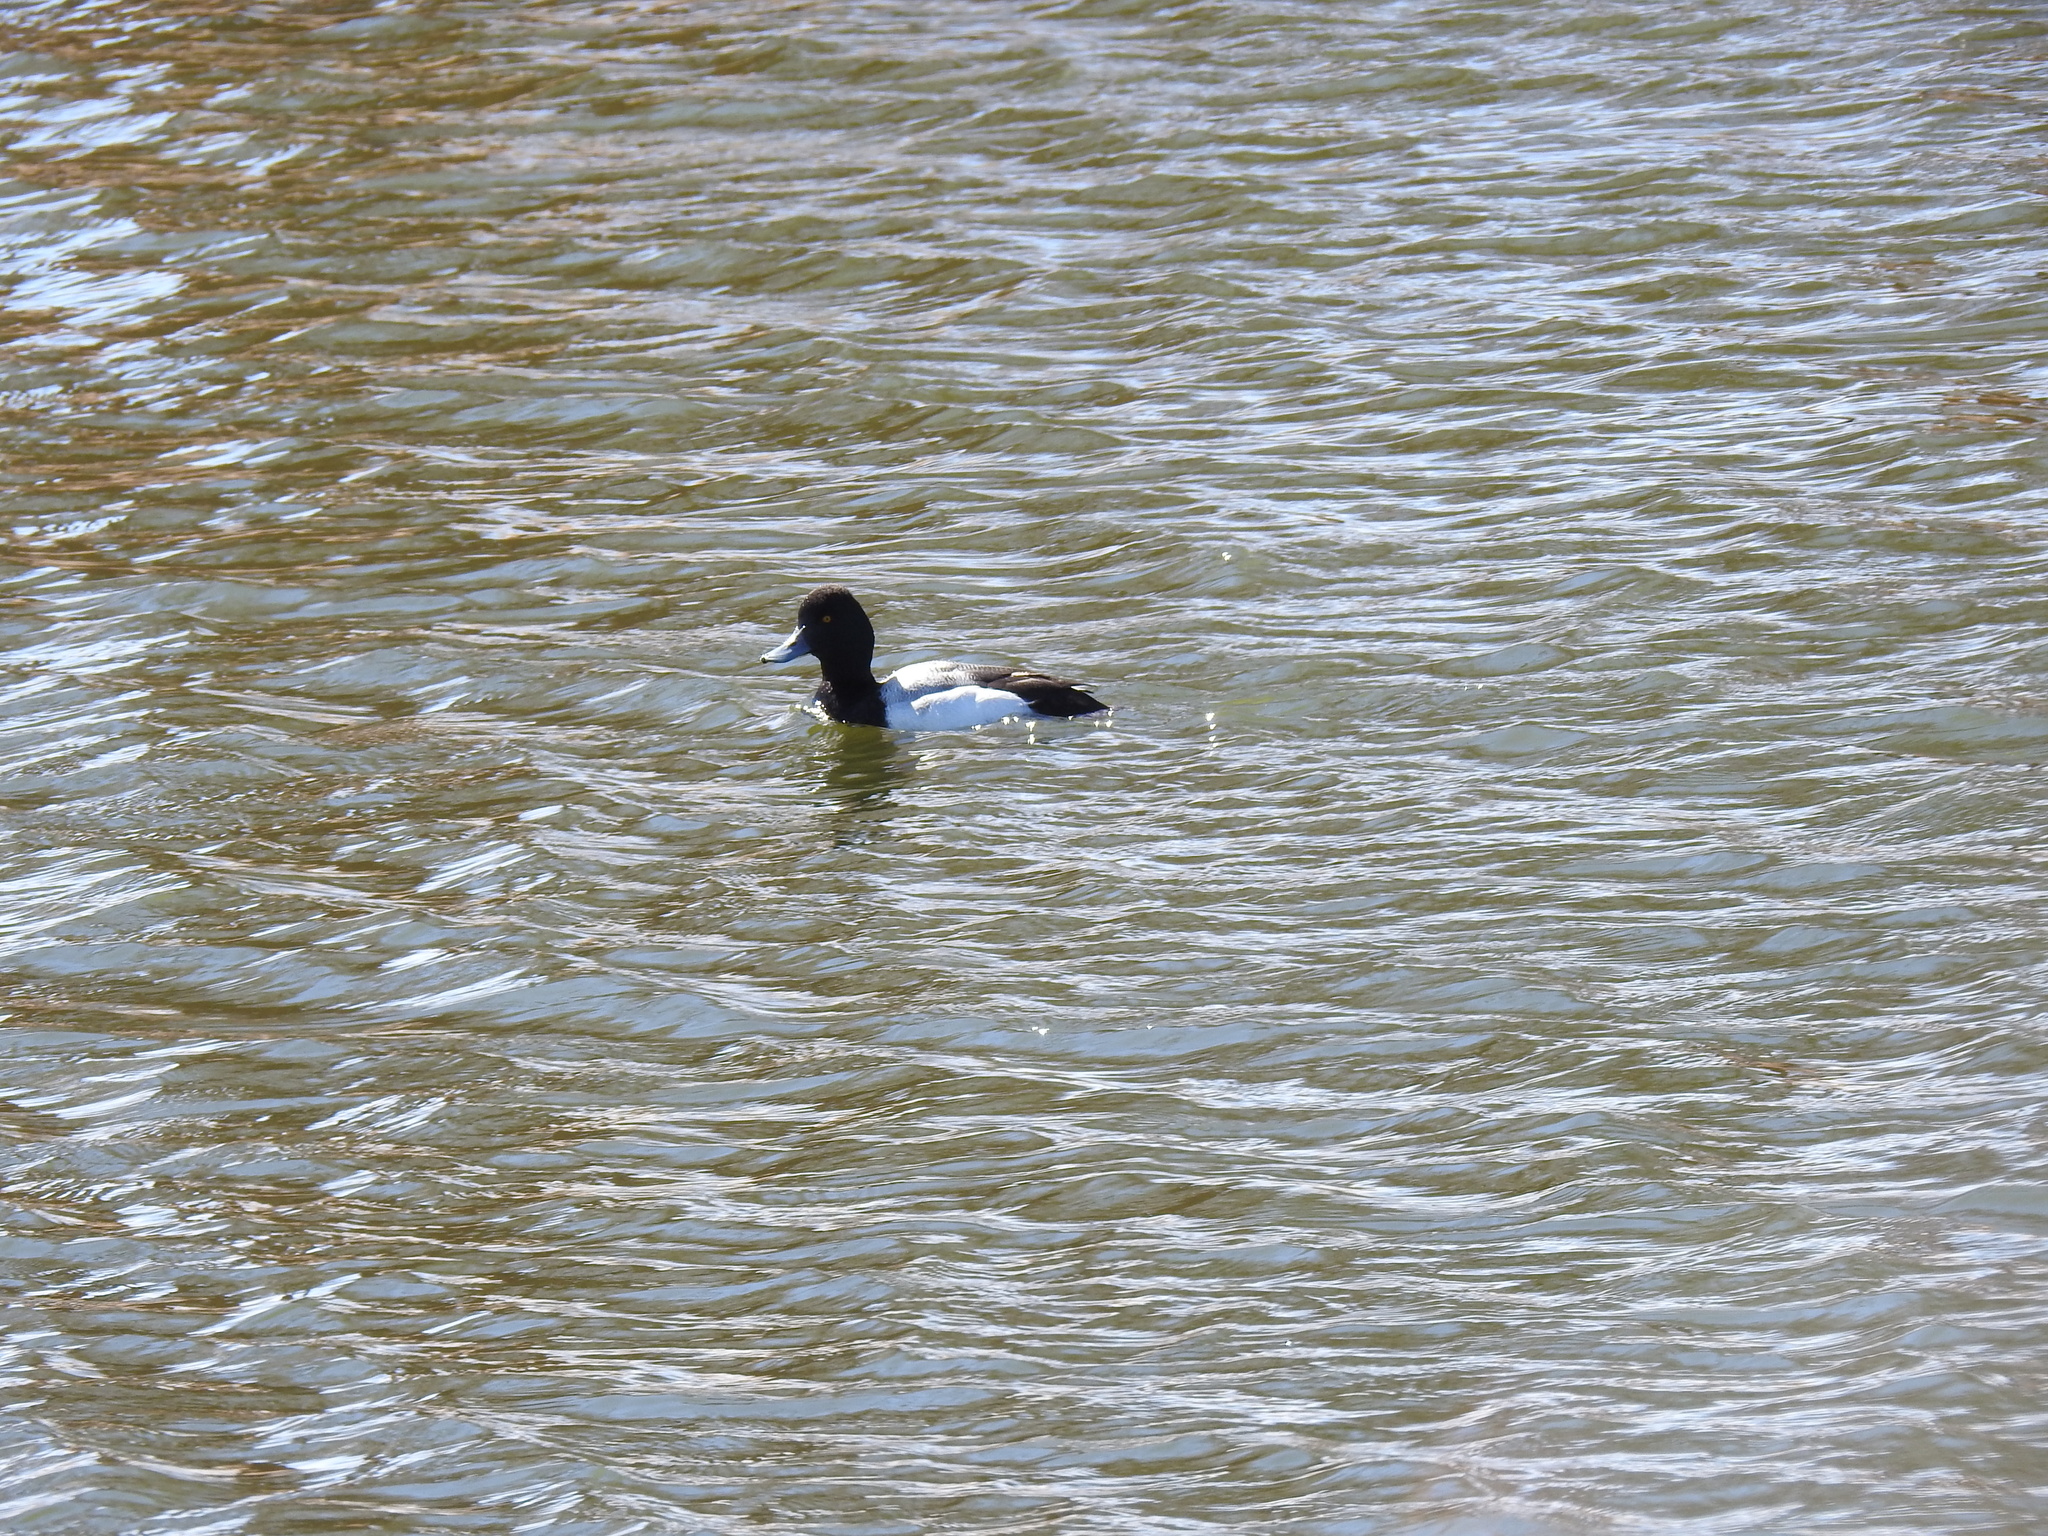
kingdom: Animalia
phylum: Chordata
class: Aves
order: Anseriformes
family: Anatidae
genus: Aythya
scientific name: Aythya affinis
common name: Lesser scaup
